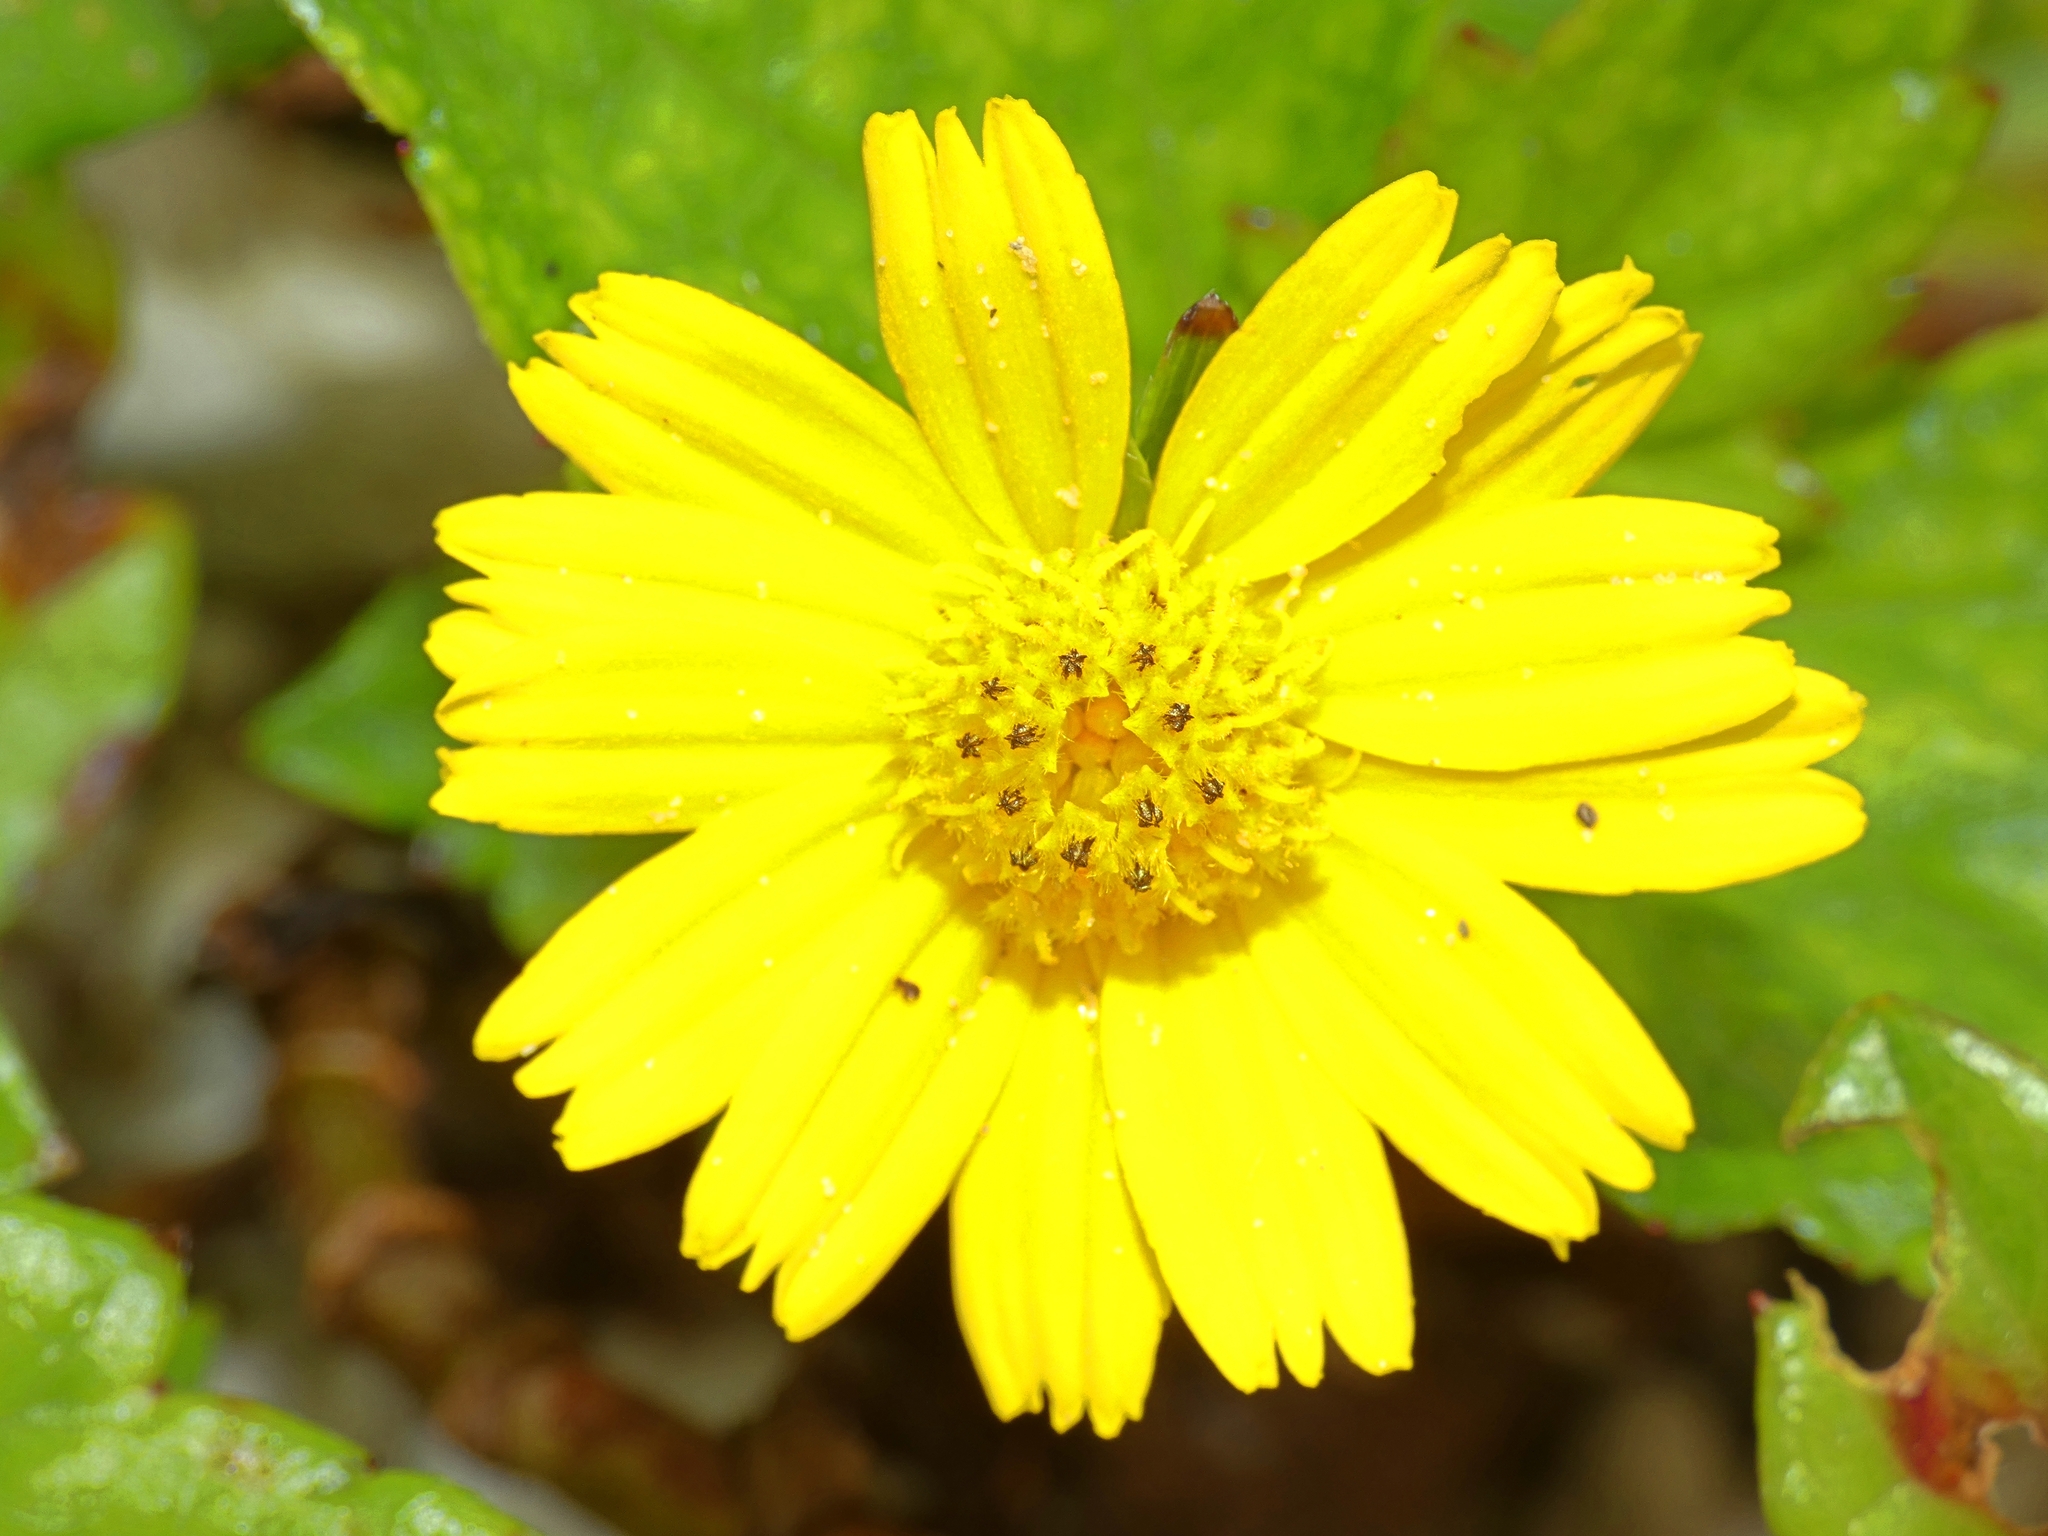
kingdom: Plantae
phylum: Tracheophyta
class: Magnoliopsida
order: Asterales
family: Asteraceae
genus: Sphagneticola
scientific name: Sphagneticola trilobata
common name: Bay biscayne creeping-oxeye
